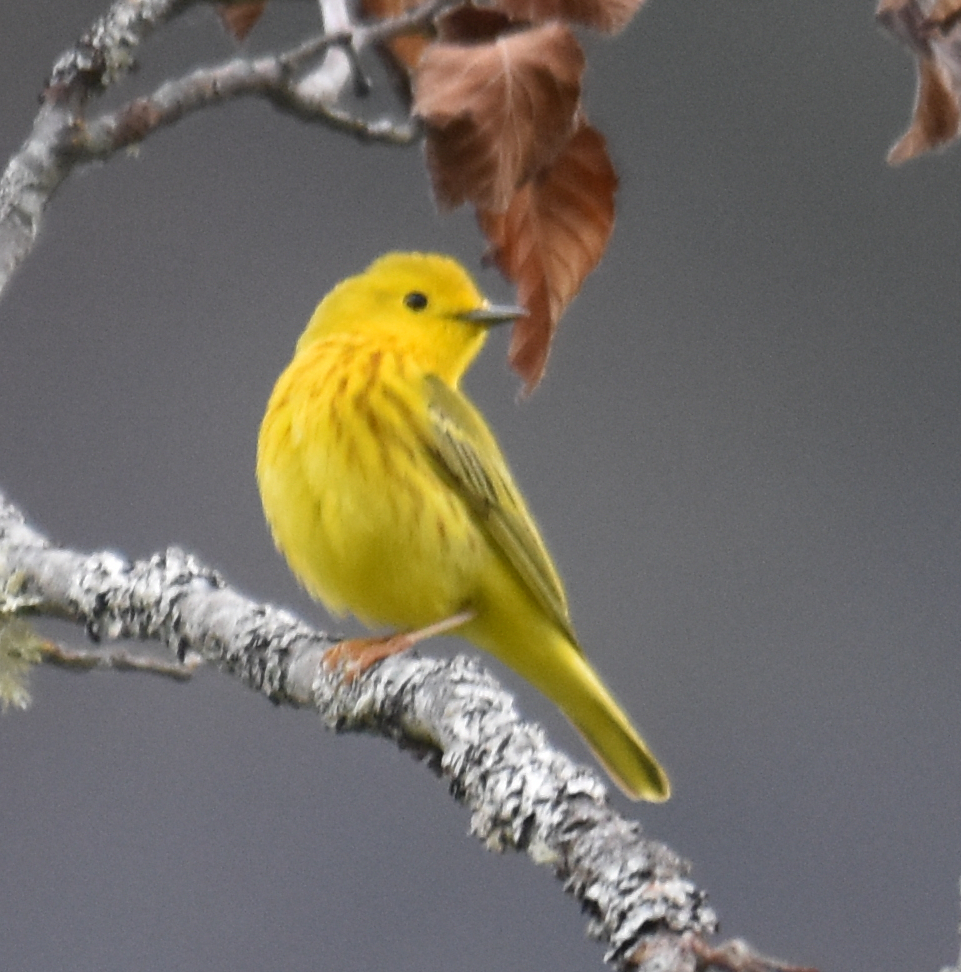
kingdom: Animalia
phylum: Chordata
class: Aves
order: Passeriformes
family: Parulidae
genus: Setophaga
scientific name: Setophaga petechia
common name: Yellow warbler
